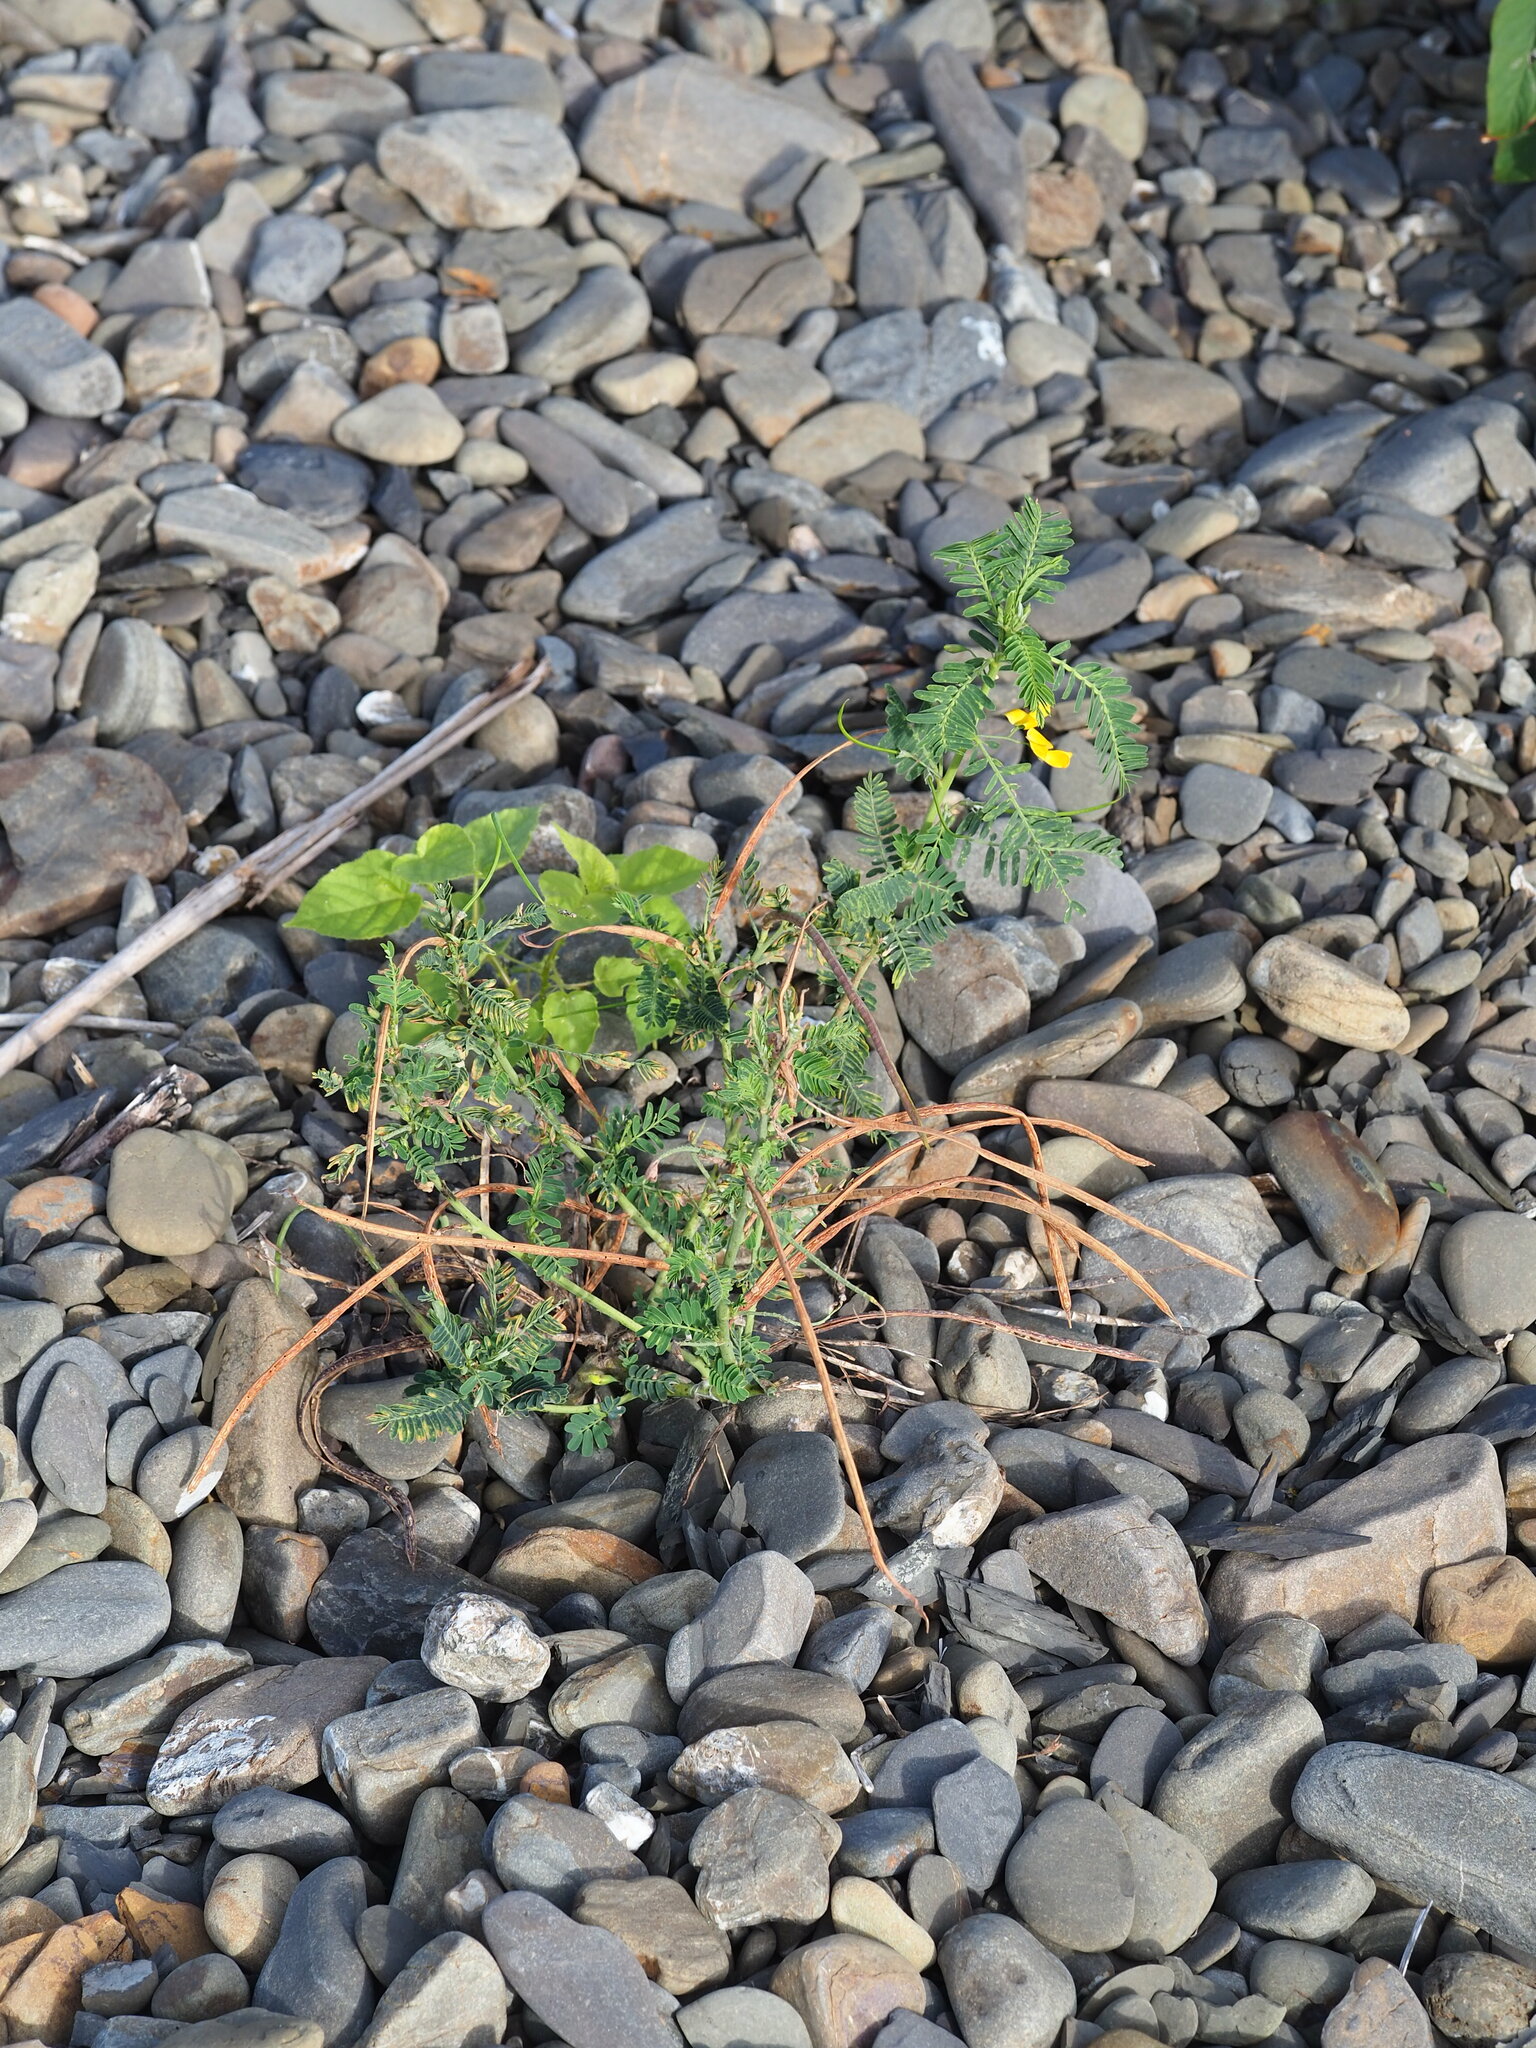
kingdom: Plantae
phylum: Tracheophyta
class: Magnoliopsida
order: Fabales
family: Fabaceae
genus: Sesbania
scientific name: Sesbania cannabina
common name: Canicha
